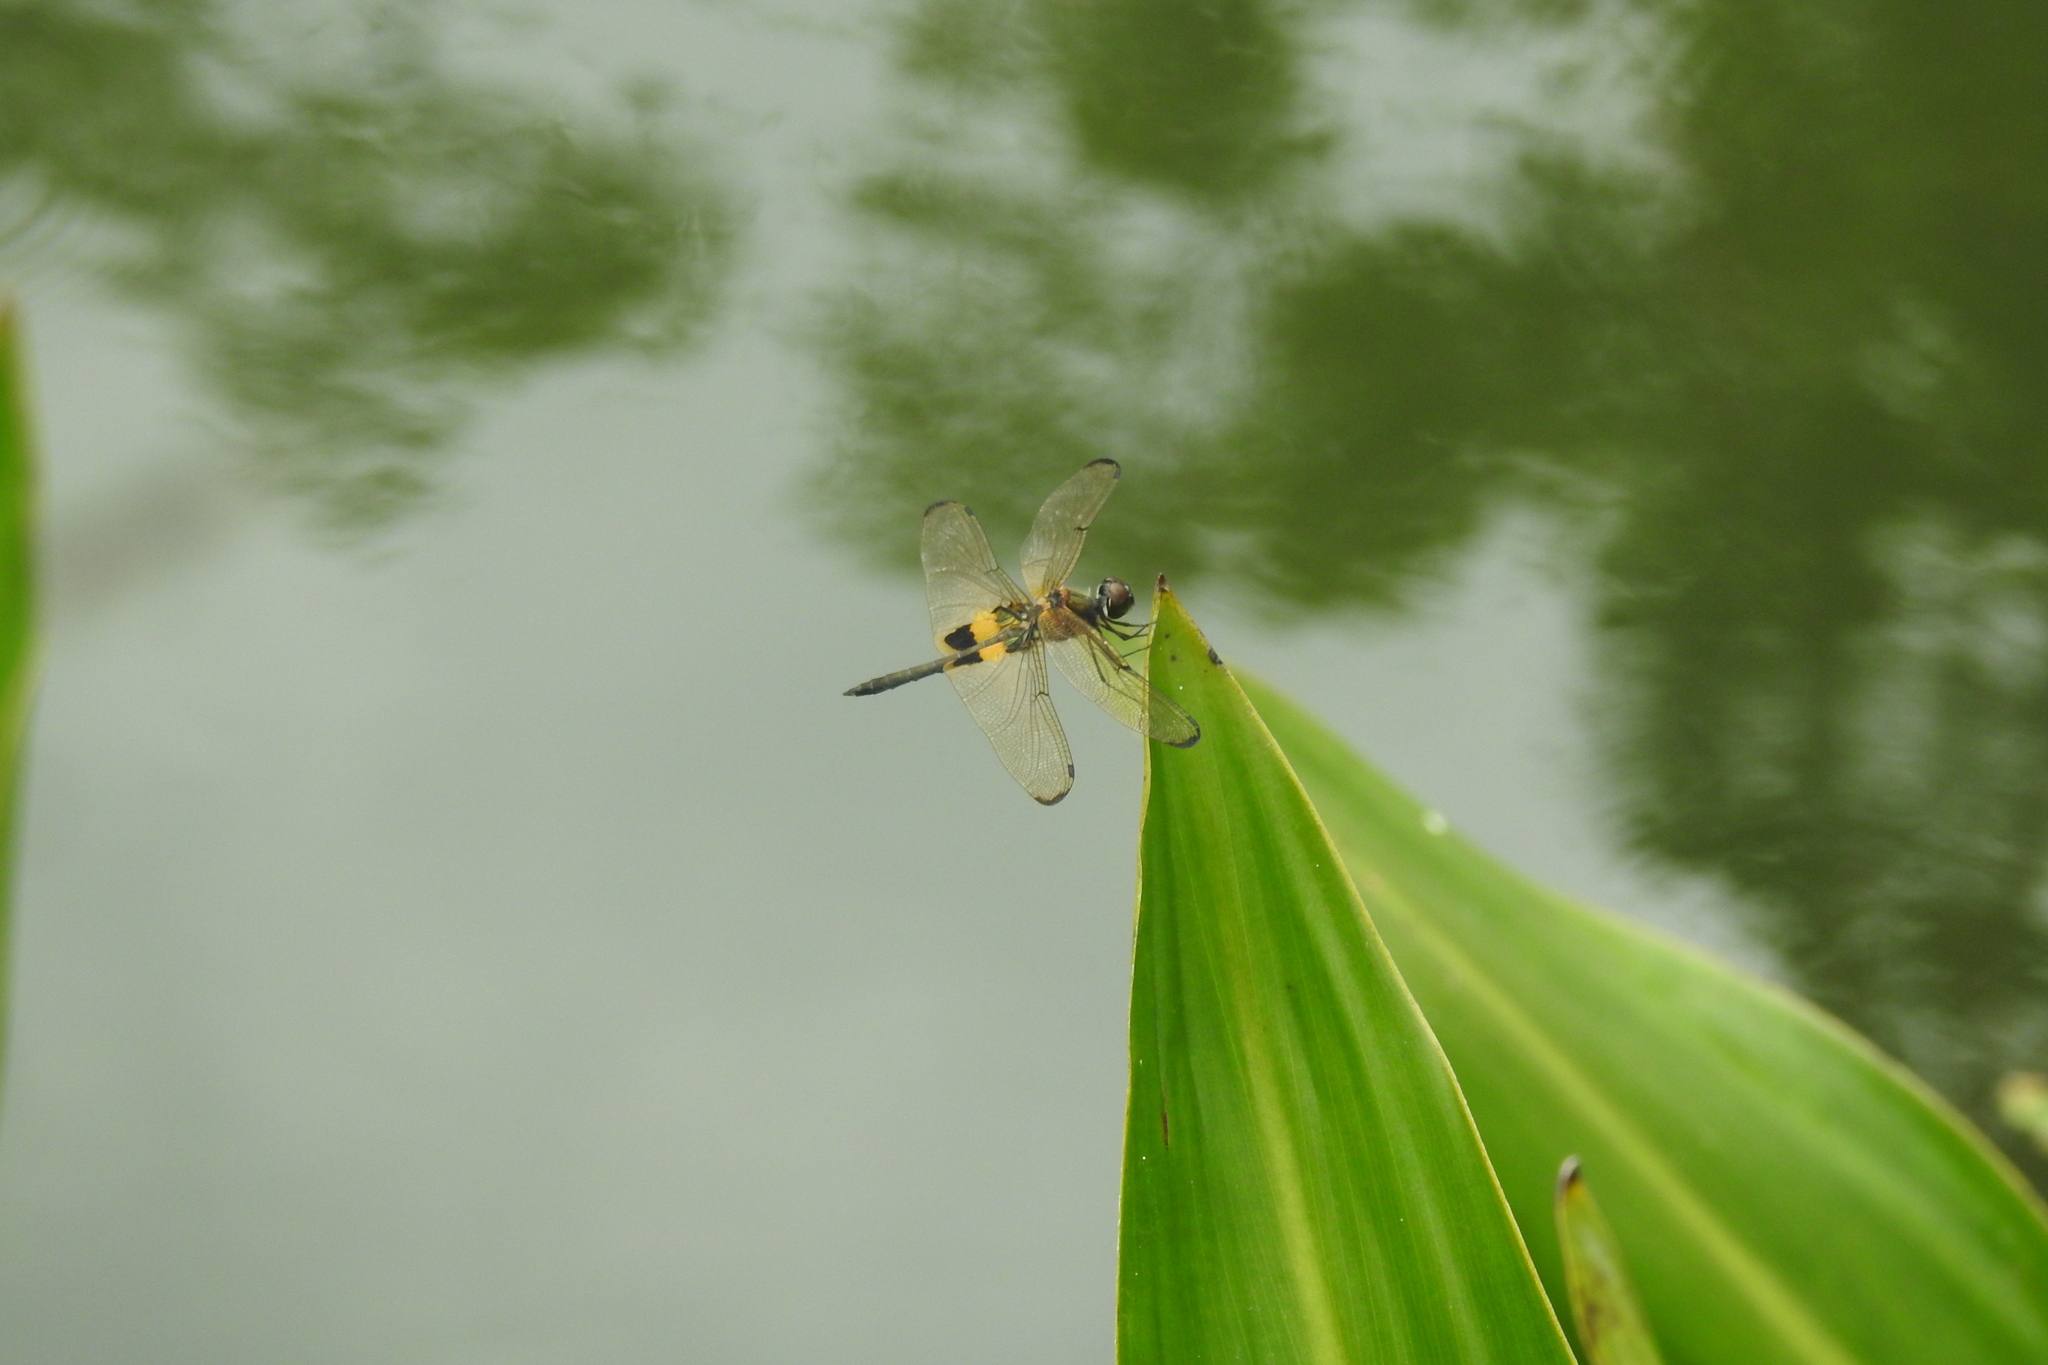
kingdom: Animalia
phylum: Arthropoda
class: Insecta
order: Odonata
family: Libellulidae
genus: Rhyothemis
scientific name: Rhyothemis phyllis
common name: Yellow-barred flutterer
